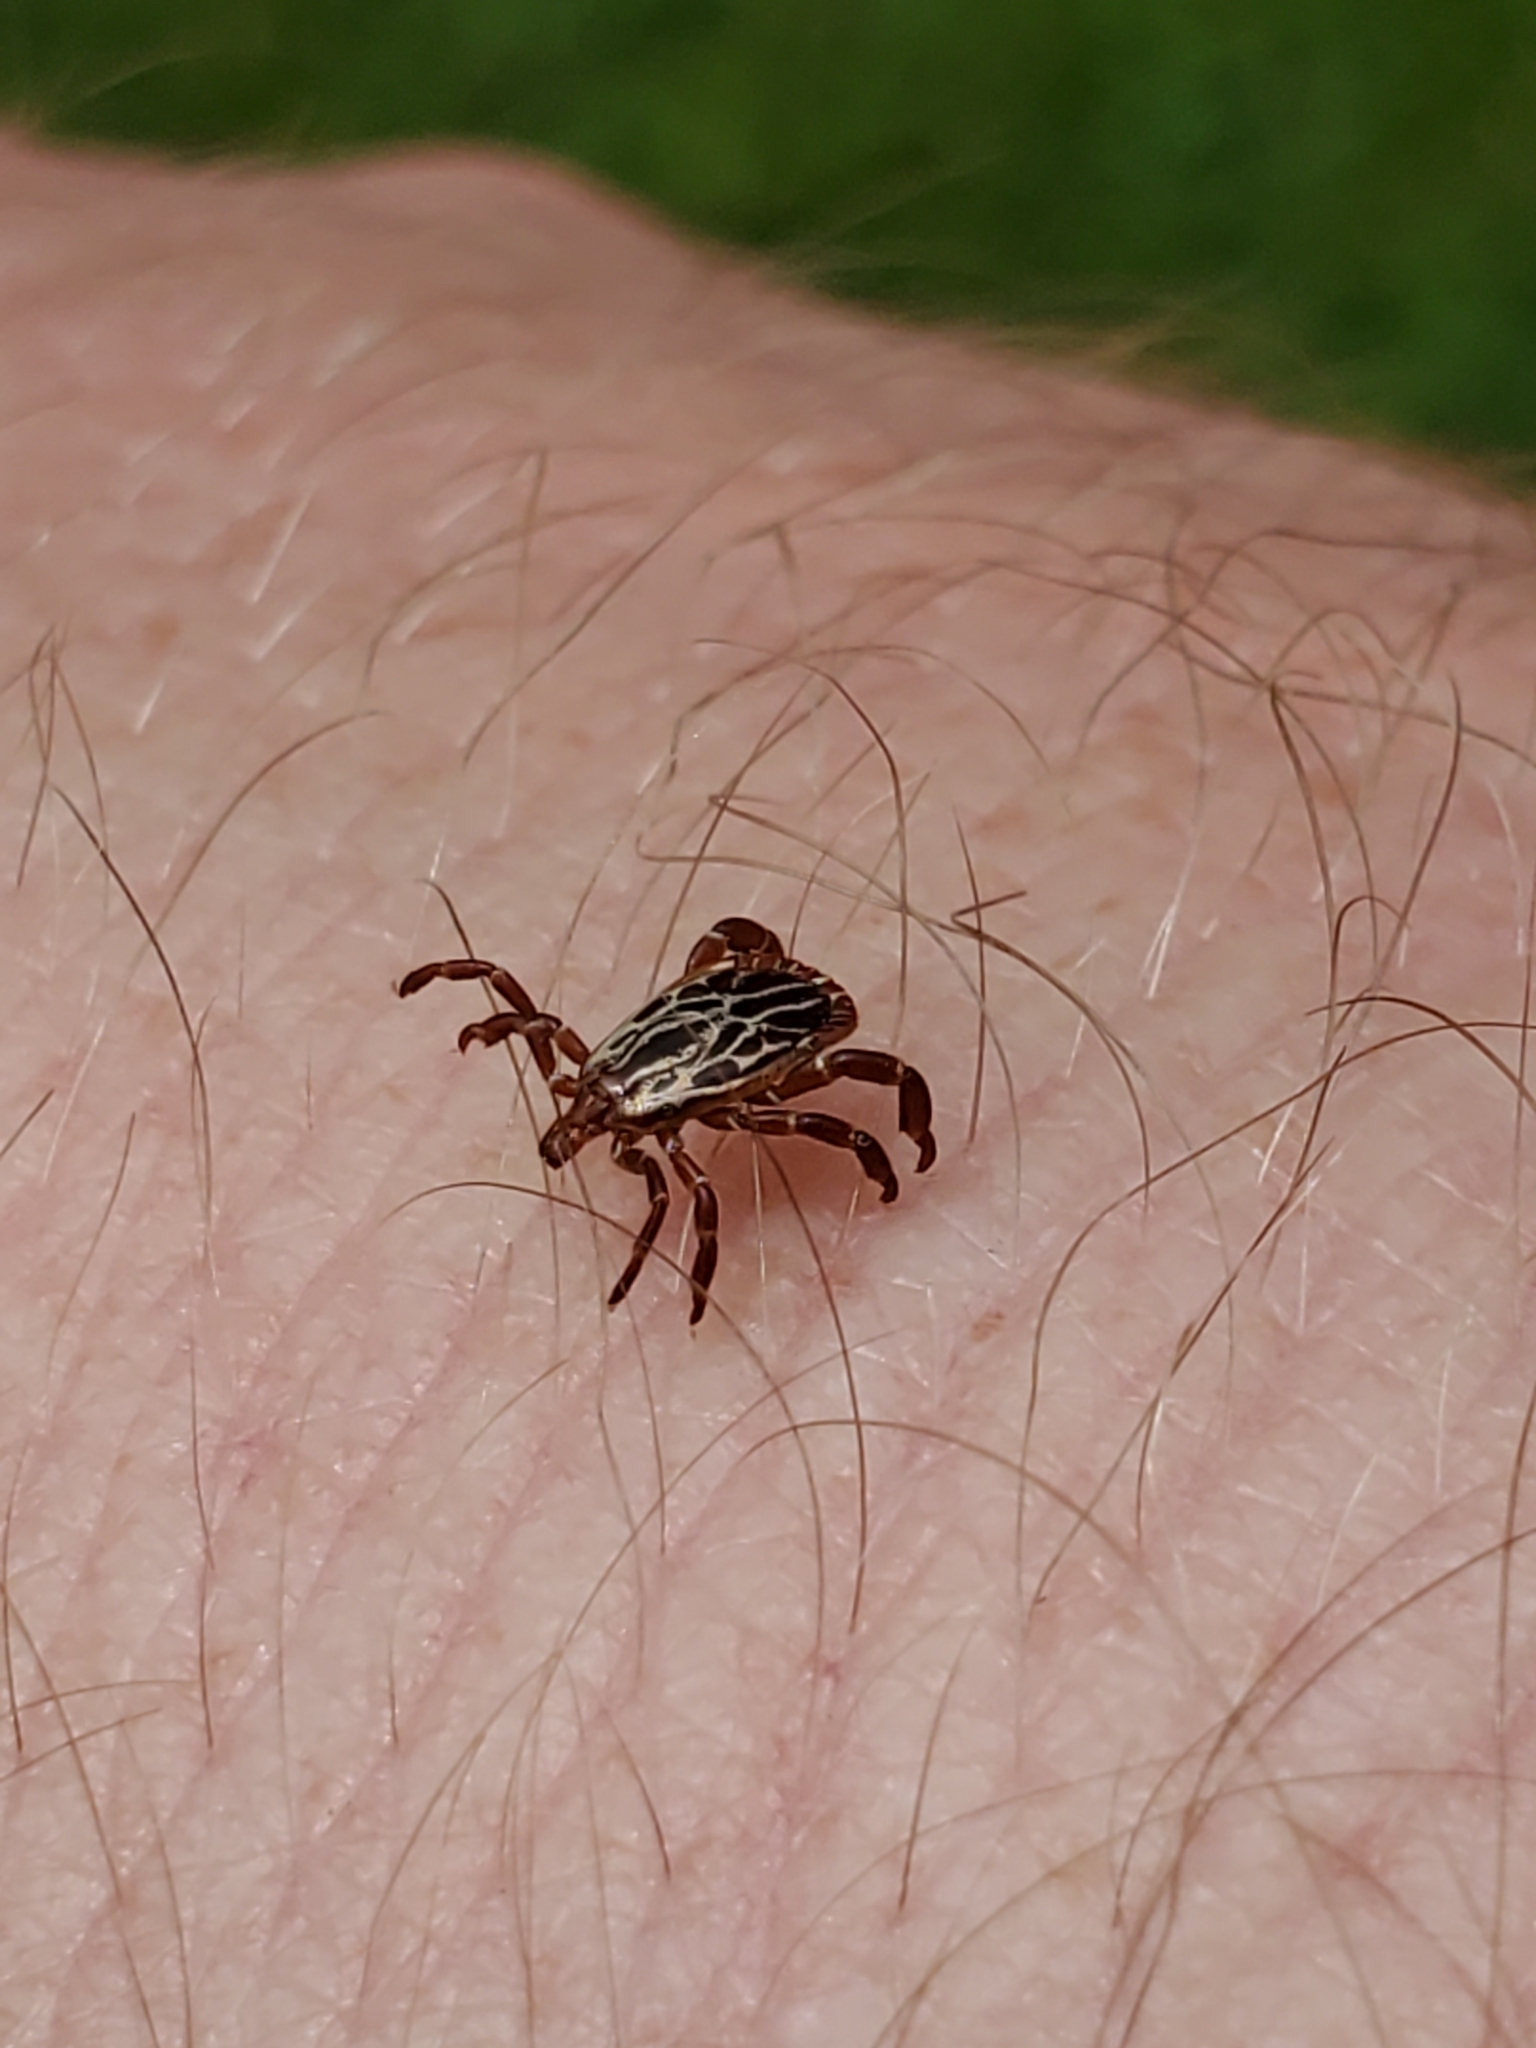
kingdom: Animalia
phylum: Arthropoda
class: Arachnida
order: Ixodida
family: Ixodidae
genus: Amblyomma
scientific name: Amblyomma maculatum
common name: Gulf coast tick
